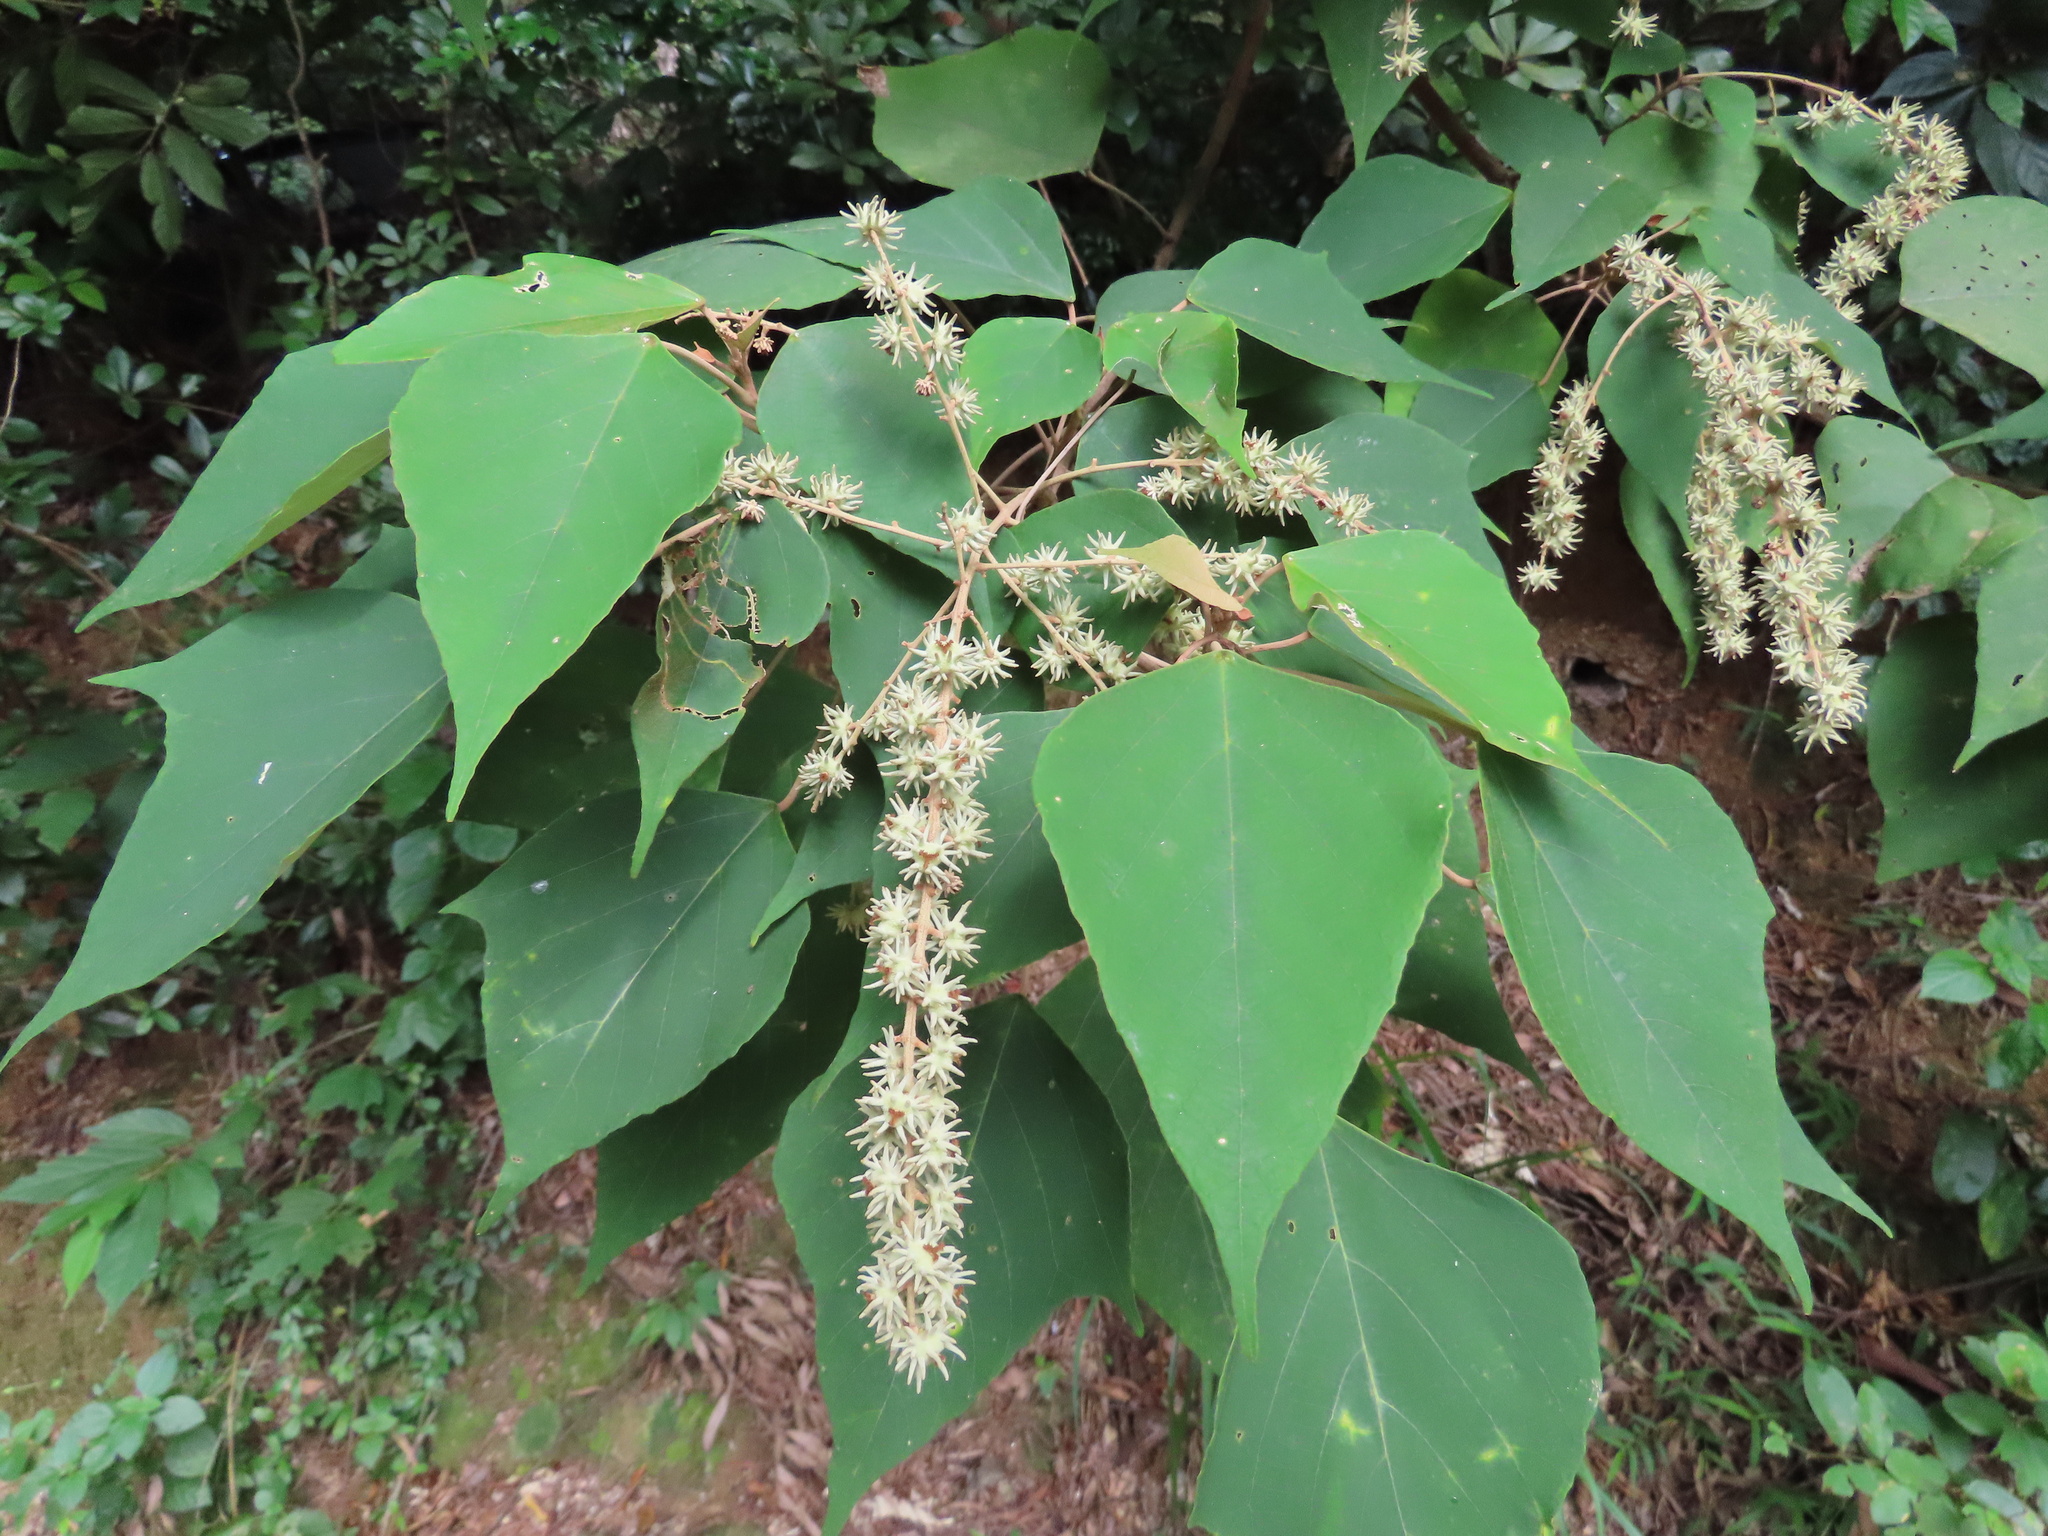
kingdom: Plantae
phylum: Tracheophyta
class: Magnoliopsida
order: Malpighiales
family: Euphorbiaceae
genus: Mallotus
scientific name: Mallotus paniculatus
